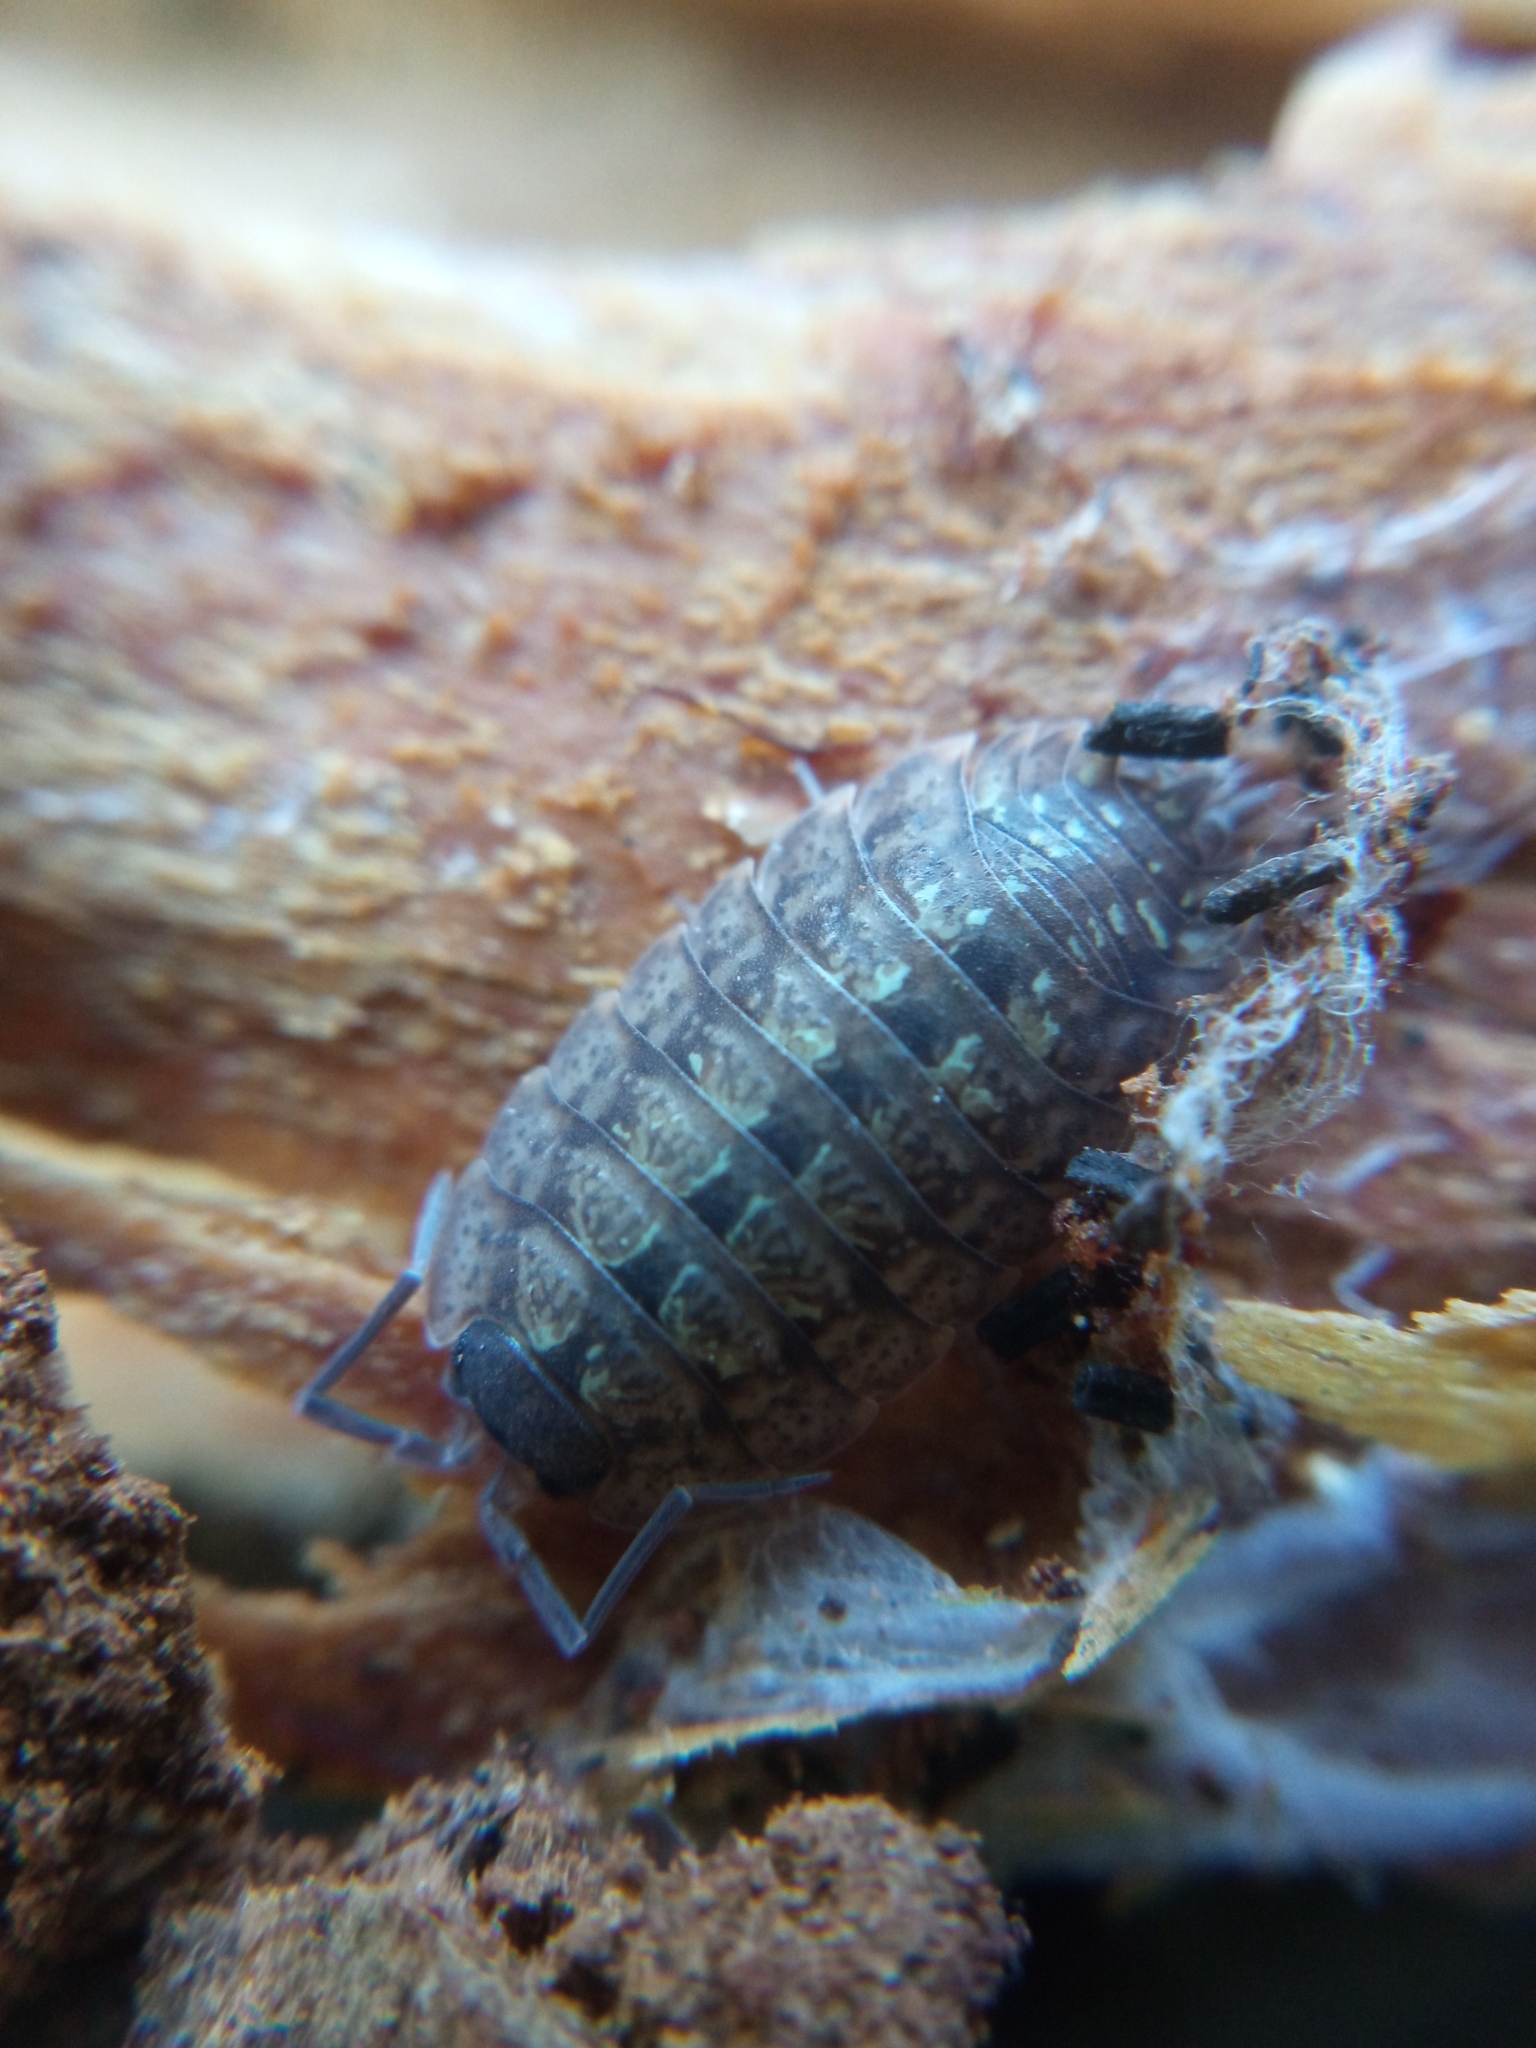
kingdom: Animalia
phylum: Arthropoda
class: Malacostraca
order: Isopoda
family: Porcellionidae
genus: Porcellio
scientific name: Porcellio monticola
